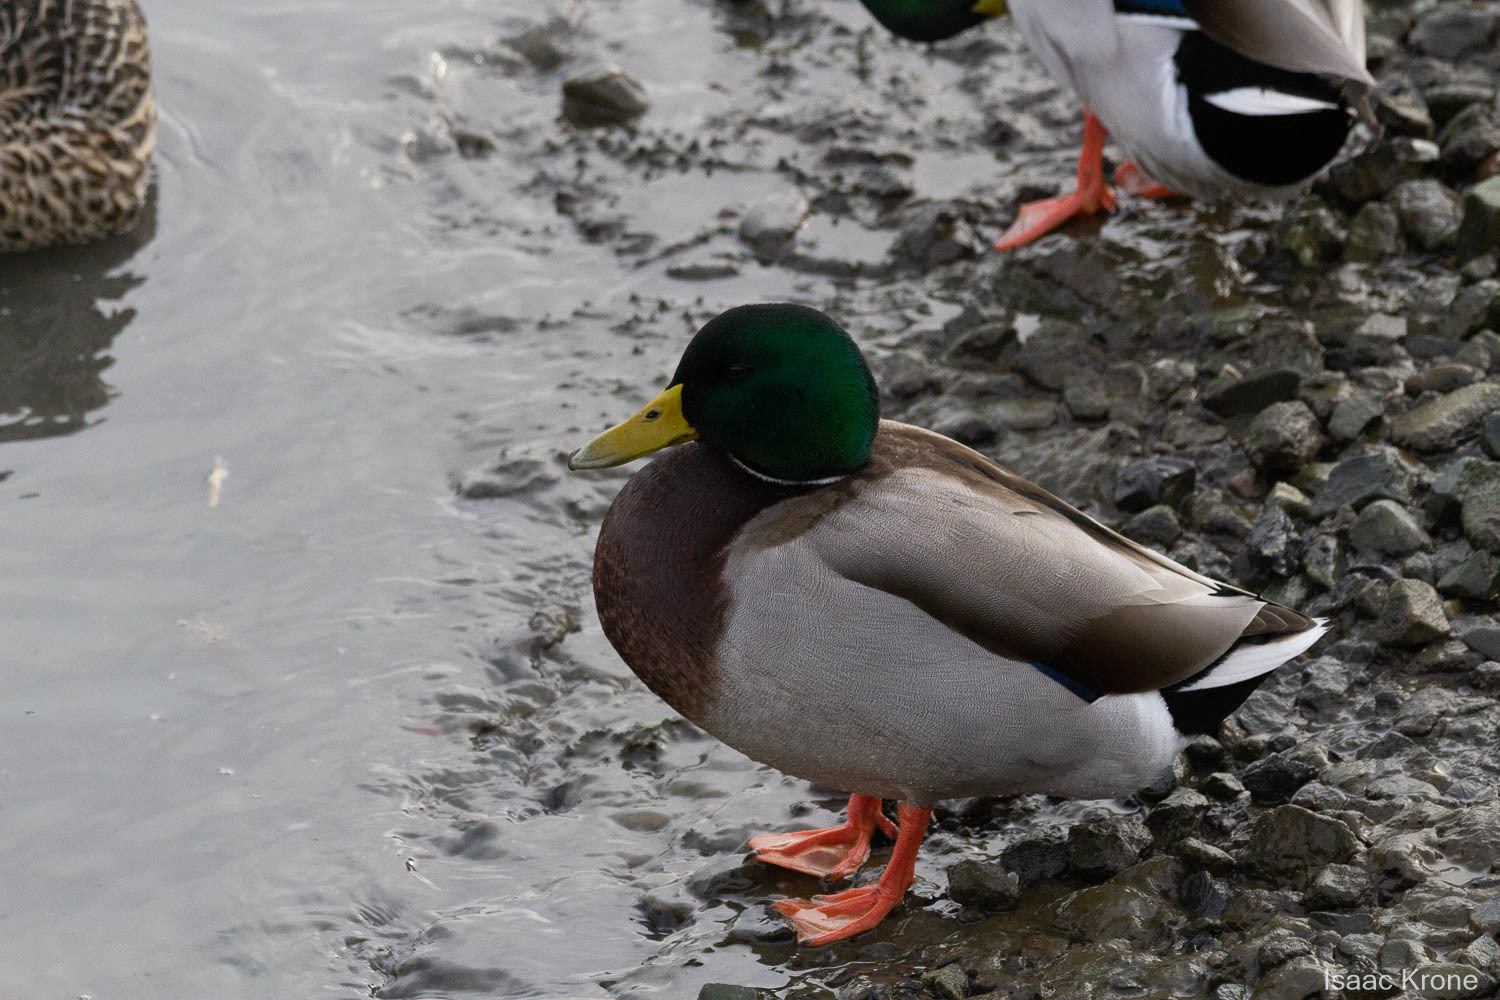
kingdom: Animalia
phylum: Chordata
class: Aves
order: Anseriformes
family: Anatidae
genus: Anas
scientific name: Anas platyrhynchos
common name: Mallard
